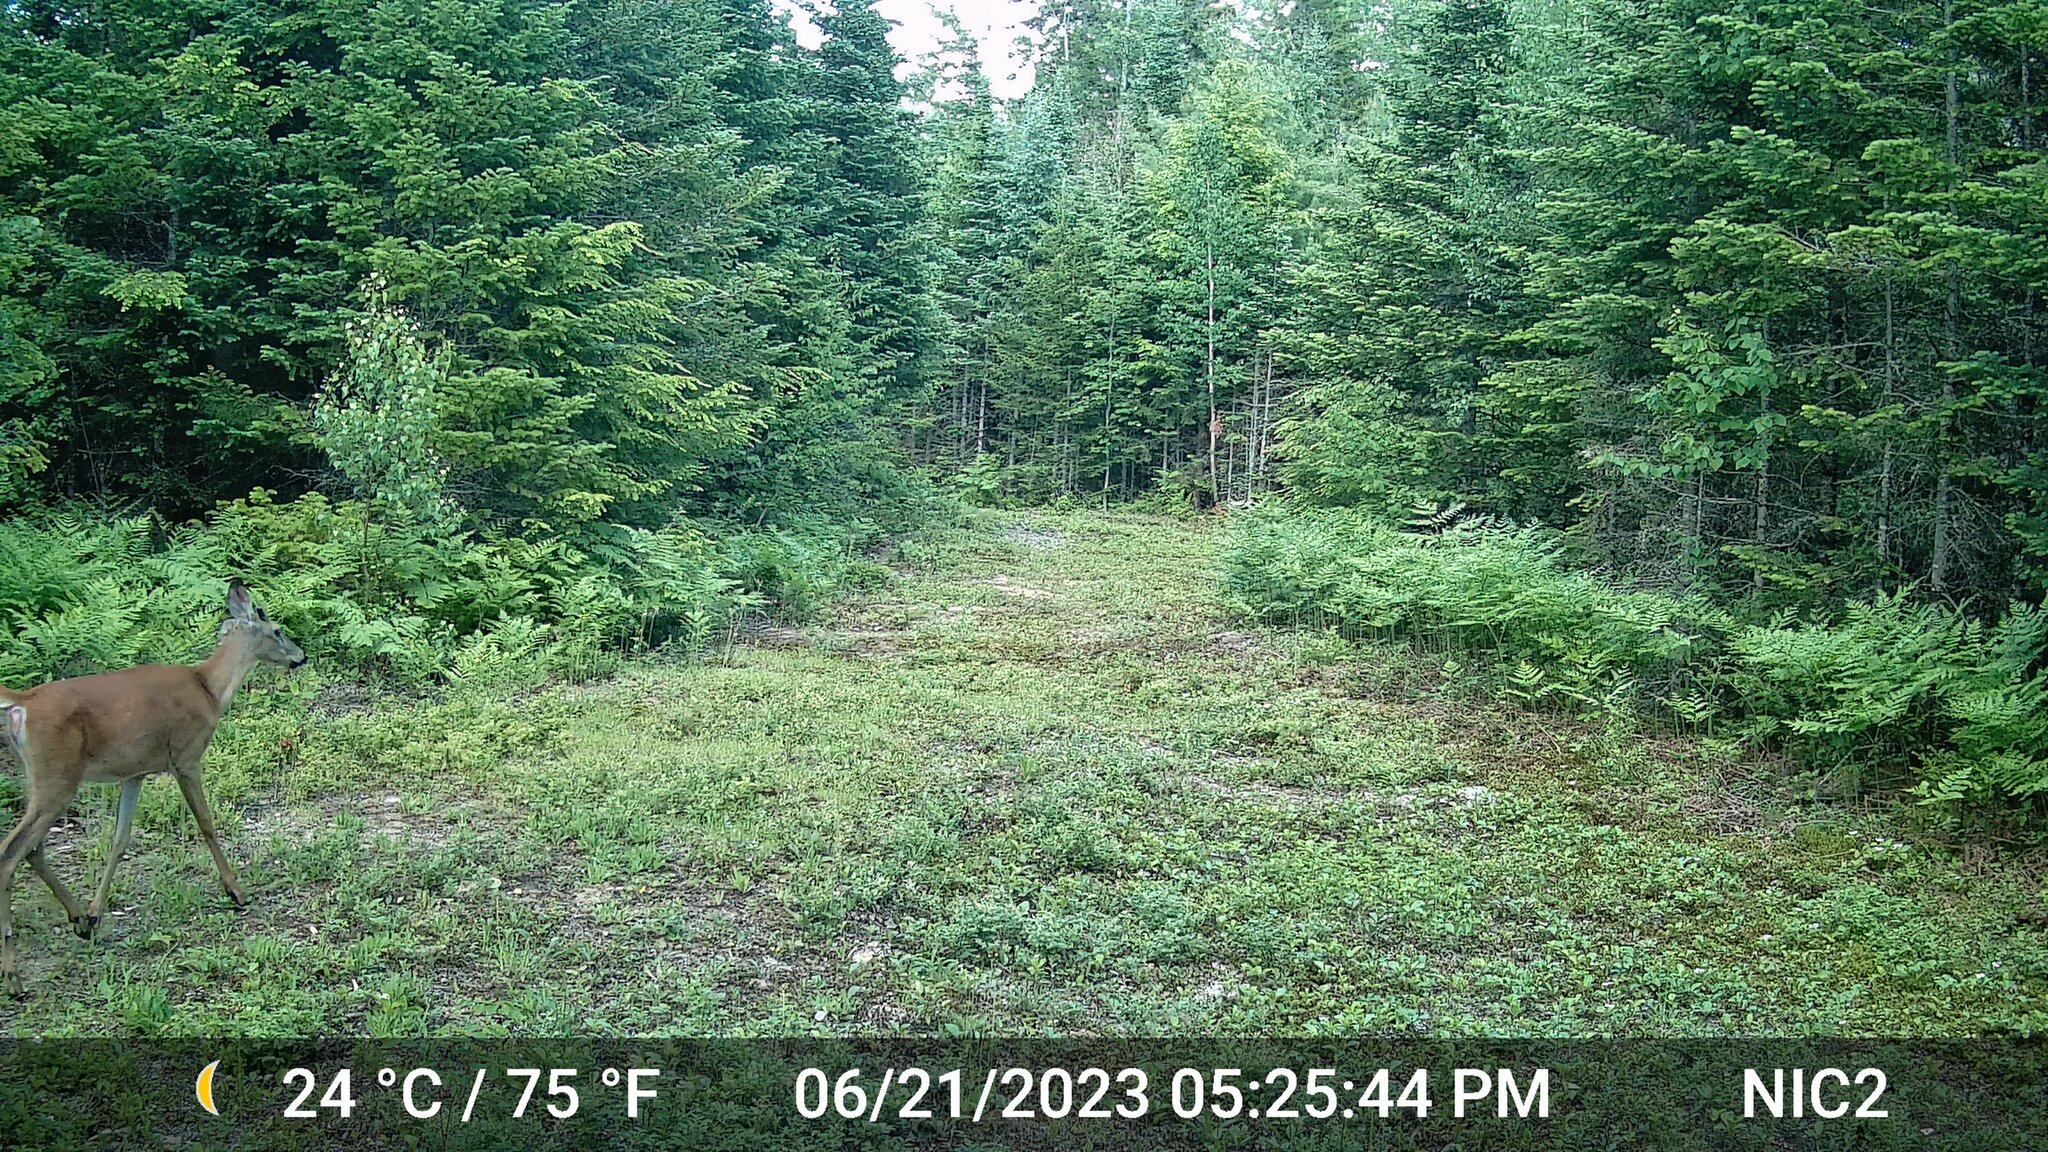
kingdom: Animalia
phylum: Chordata
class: Mammalia
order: Artiodactyla
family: Cervidae
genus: Odocoileus
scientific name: Odocoileus virginianus
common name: White-tailed deer
